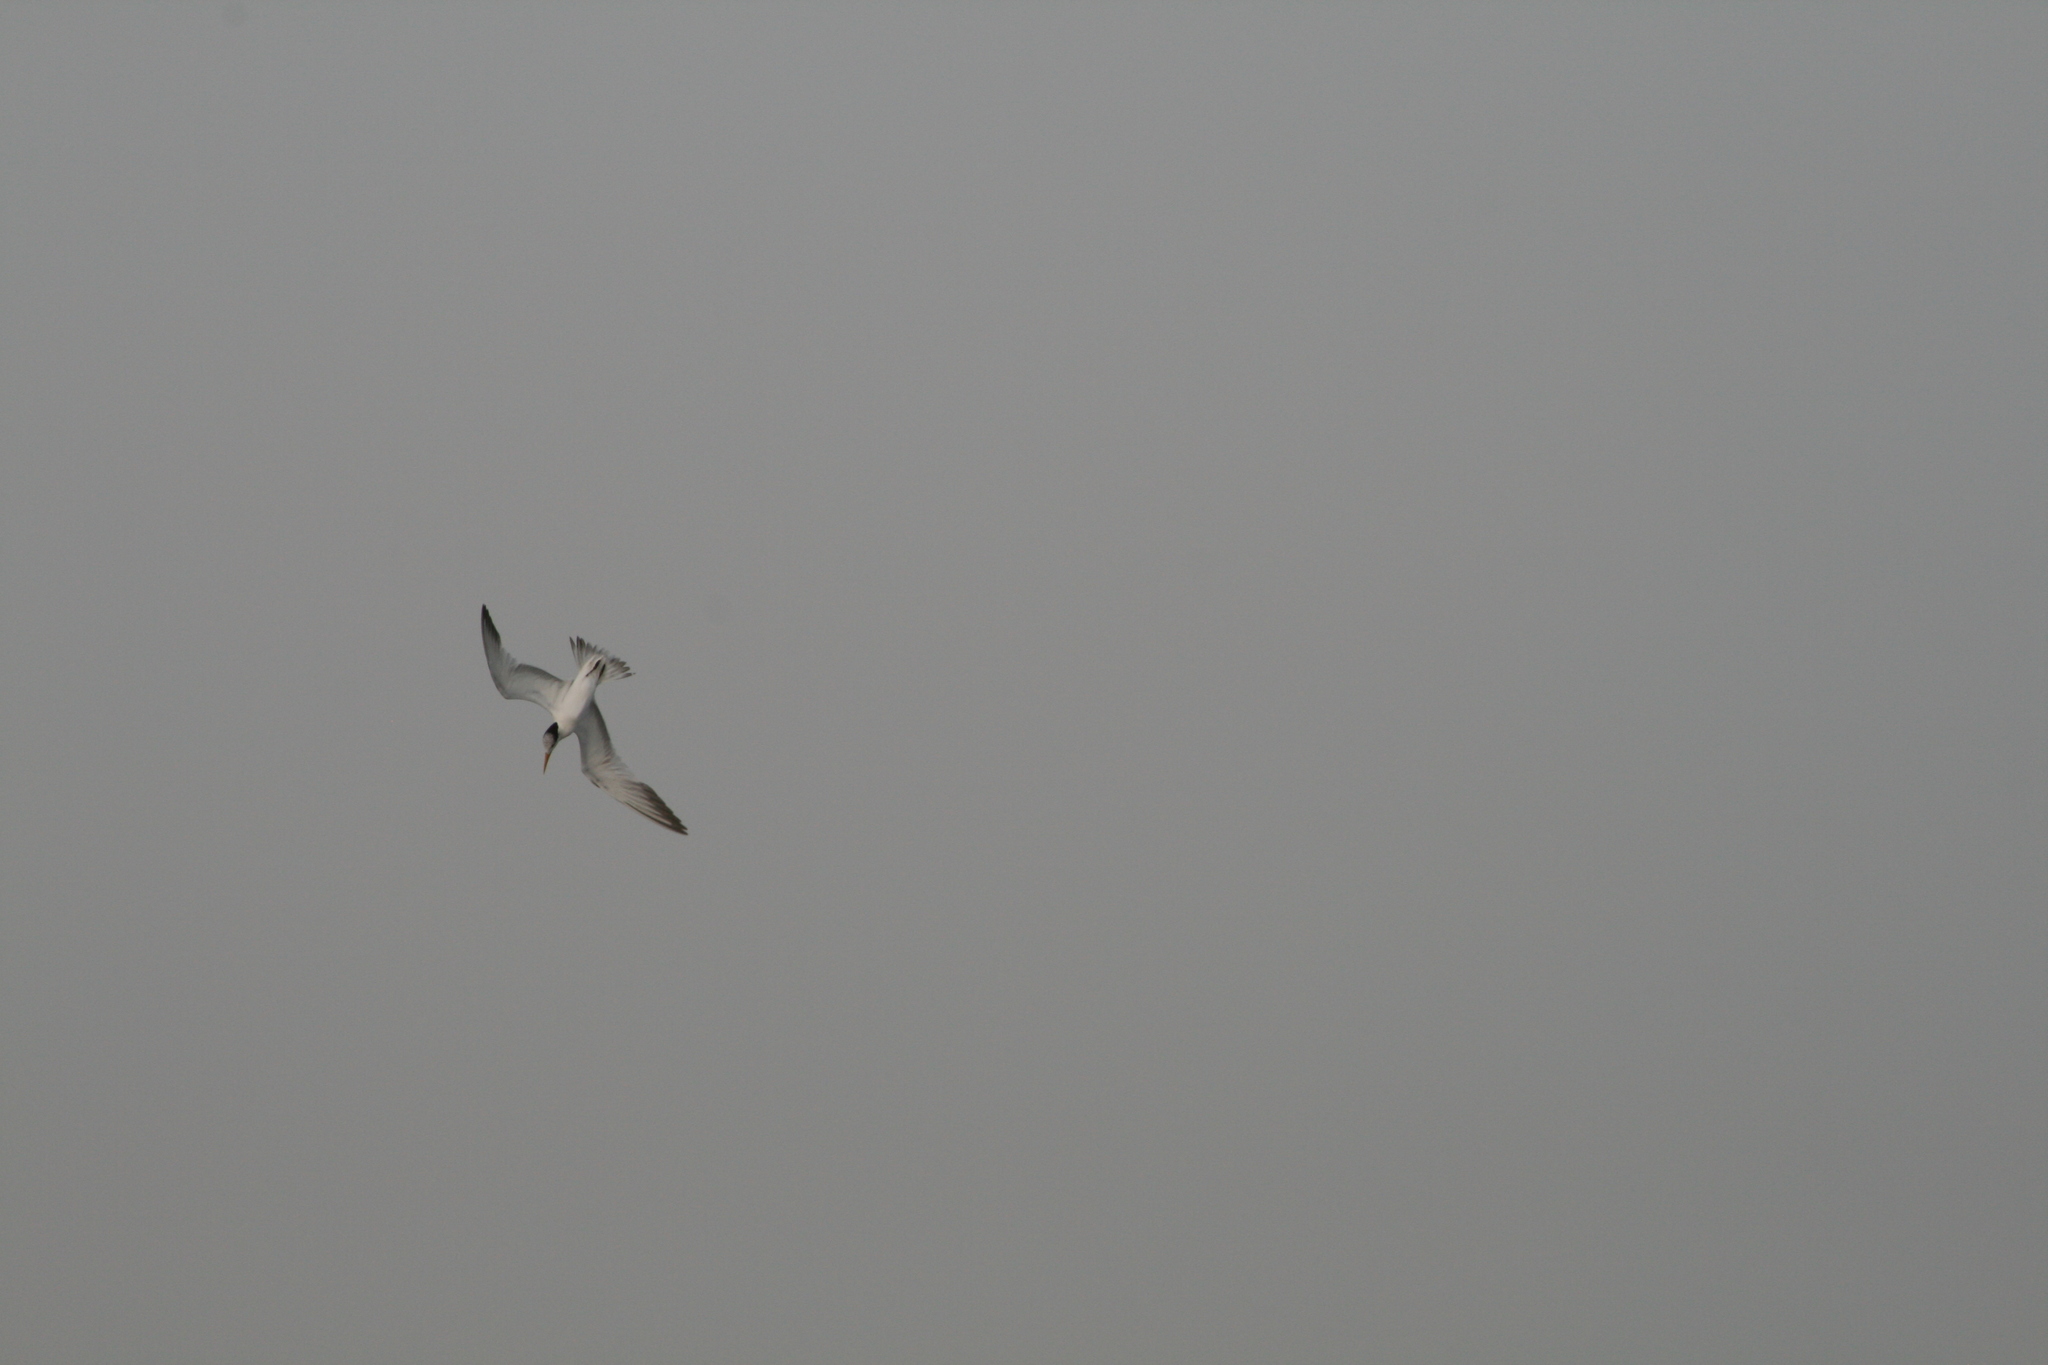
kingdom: Animalia
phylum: Chordata
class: Aves
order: Charadriiformes
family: Laridae
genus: Thalasseus
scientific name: Thalasseus albididorsalis
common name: West african crested tern
